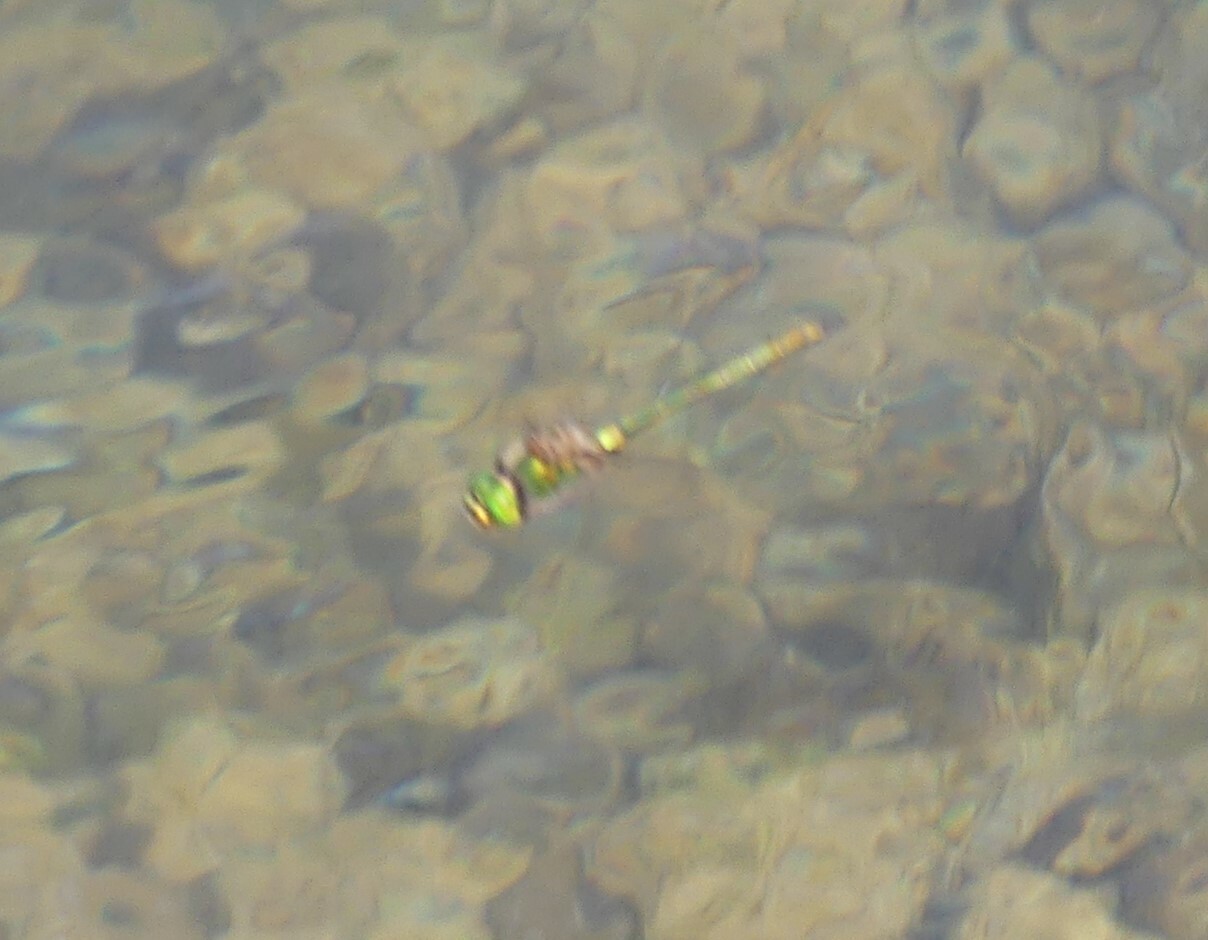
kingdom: Animalia
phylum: Arthropoda
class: Insecta
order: Odonata
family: Corduliidae
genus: Somatochlora
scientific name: Somatochlora metallica
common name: Brilliant emerald
